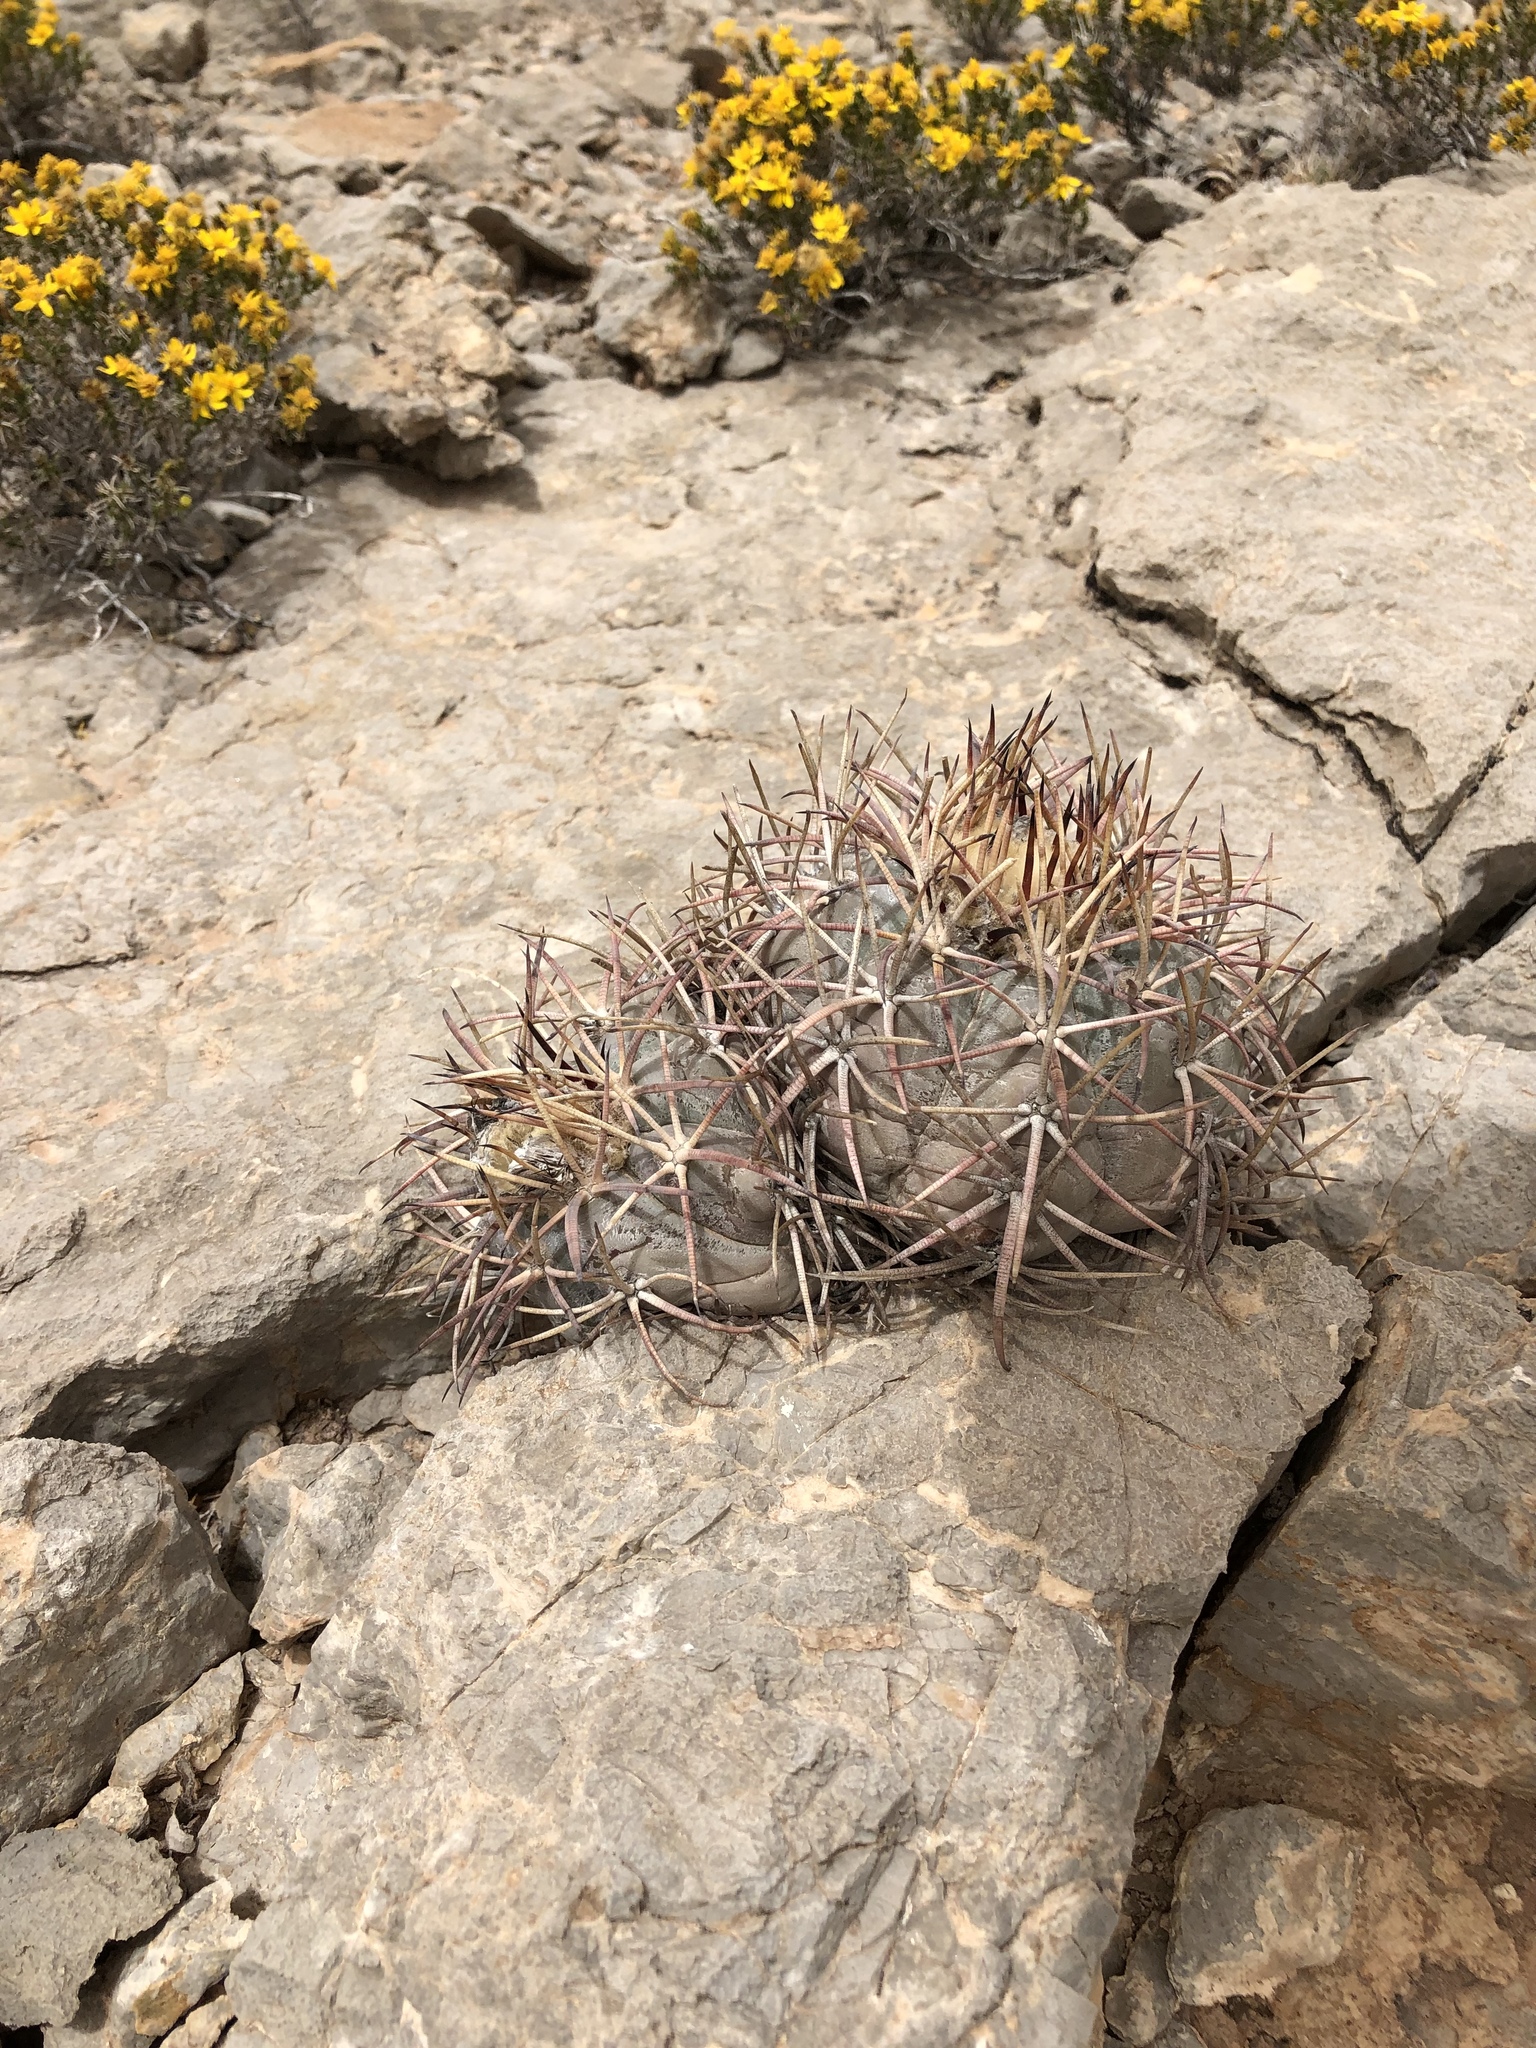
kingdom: Plantae
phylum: Tracheophyta
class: Magnoliopsida
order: Caryophyllales
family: Cactaceae
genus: Echinocactus
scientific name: Echinocactus horizonthalonius
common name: Devilshead
